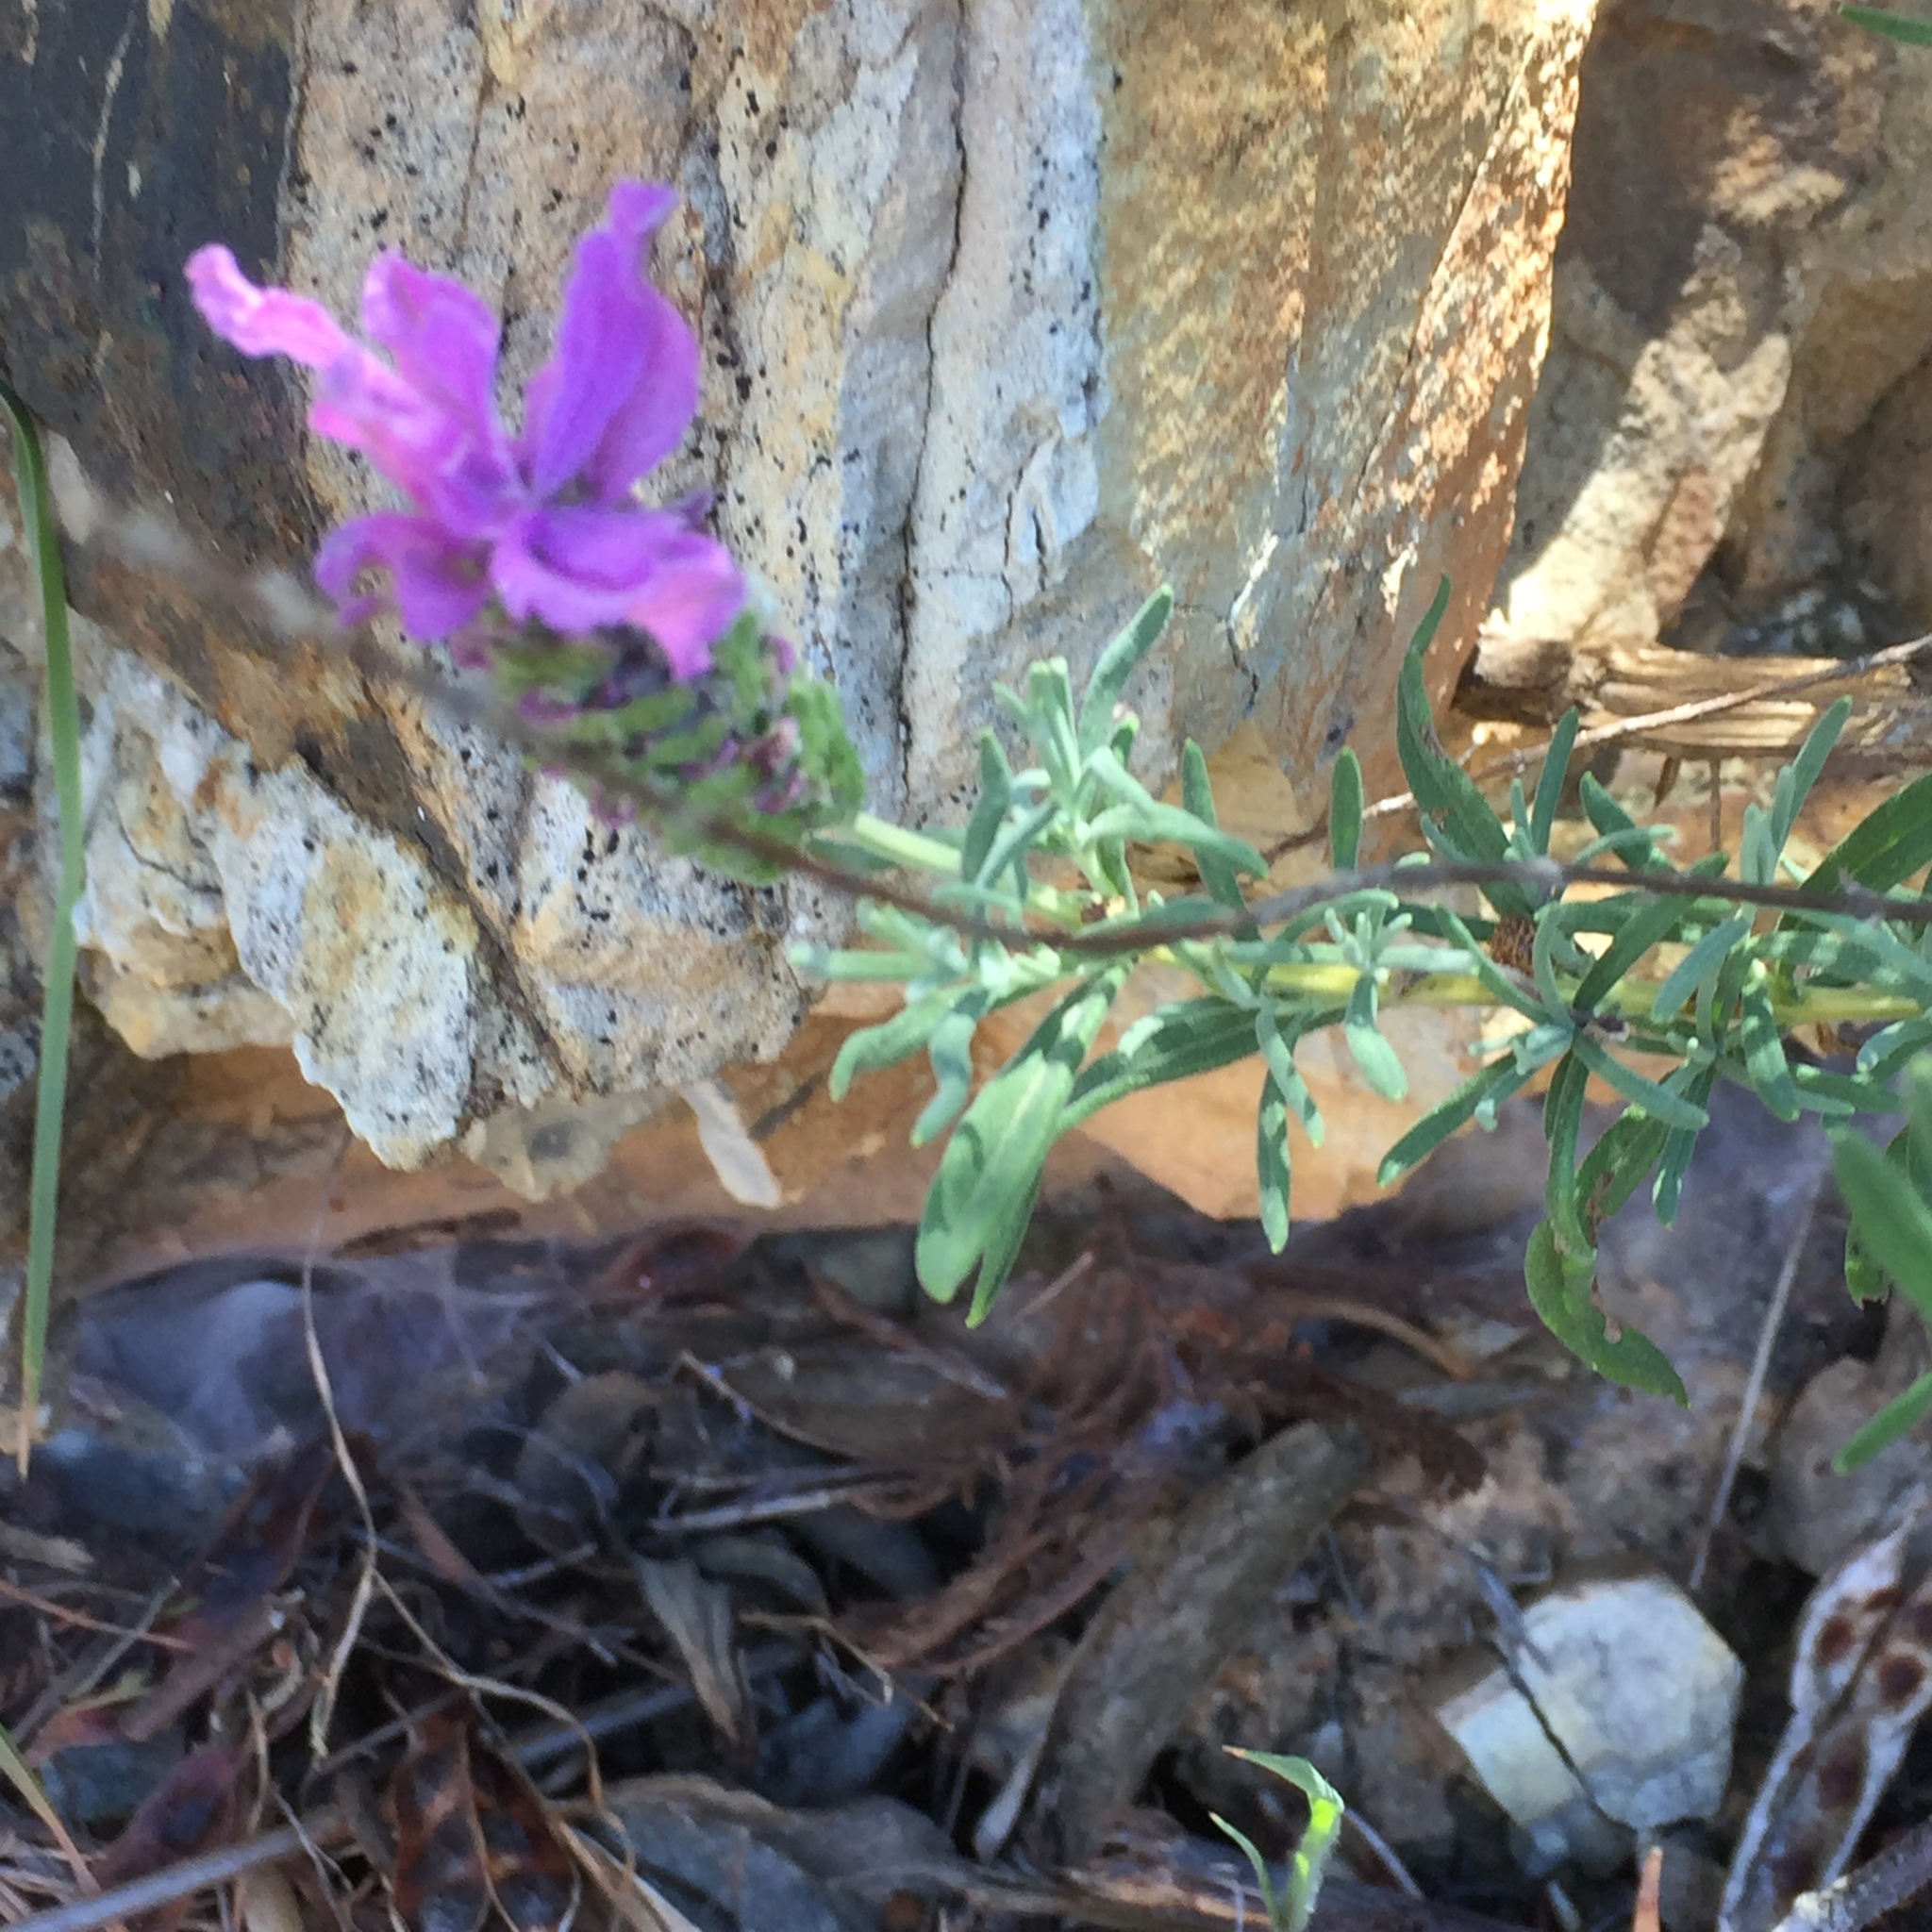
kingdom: Plantae
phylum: Tracheophyta
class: Magnoliopsida
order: Lamiales
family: Lamiaceae
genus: Lavandula
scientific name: Lavandula stoechas
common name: French lavender
